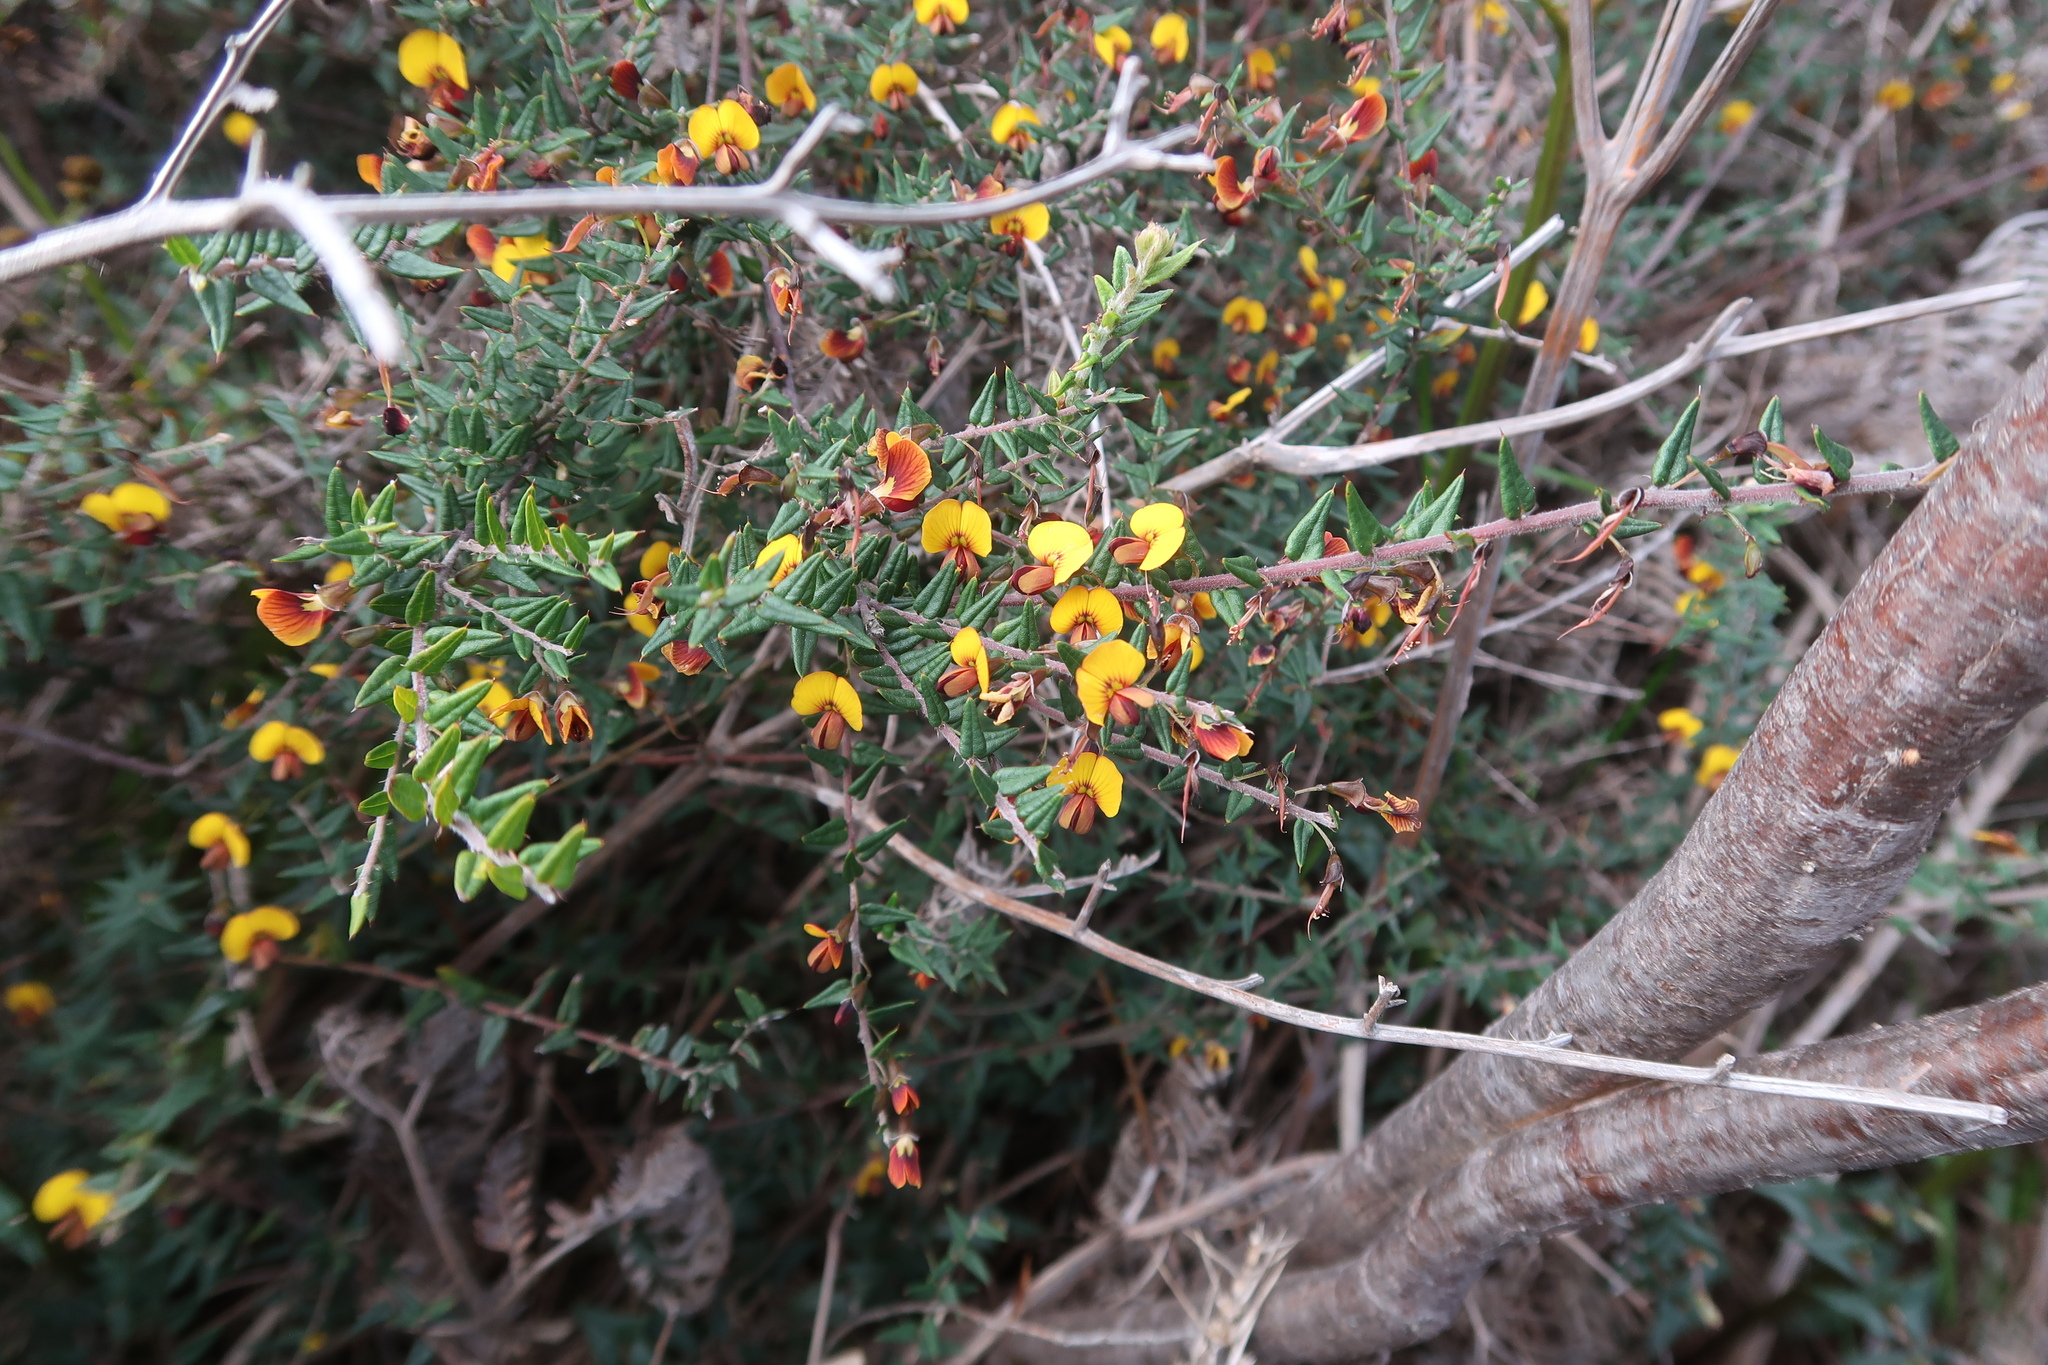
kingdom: Plantae
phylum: Tracheophyta
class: Magnoliopsida
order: Fabales
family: Fabaceae
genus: Bossiaea
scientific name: Bossiaea cinerea
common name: Showy bossiaea
